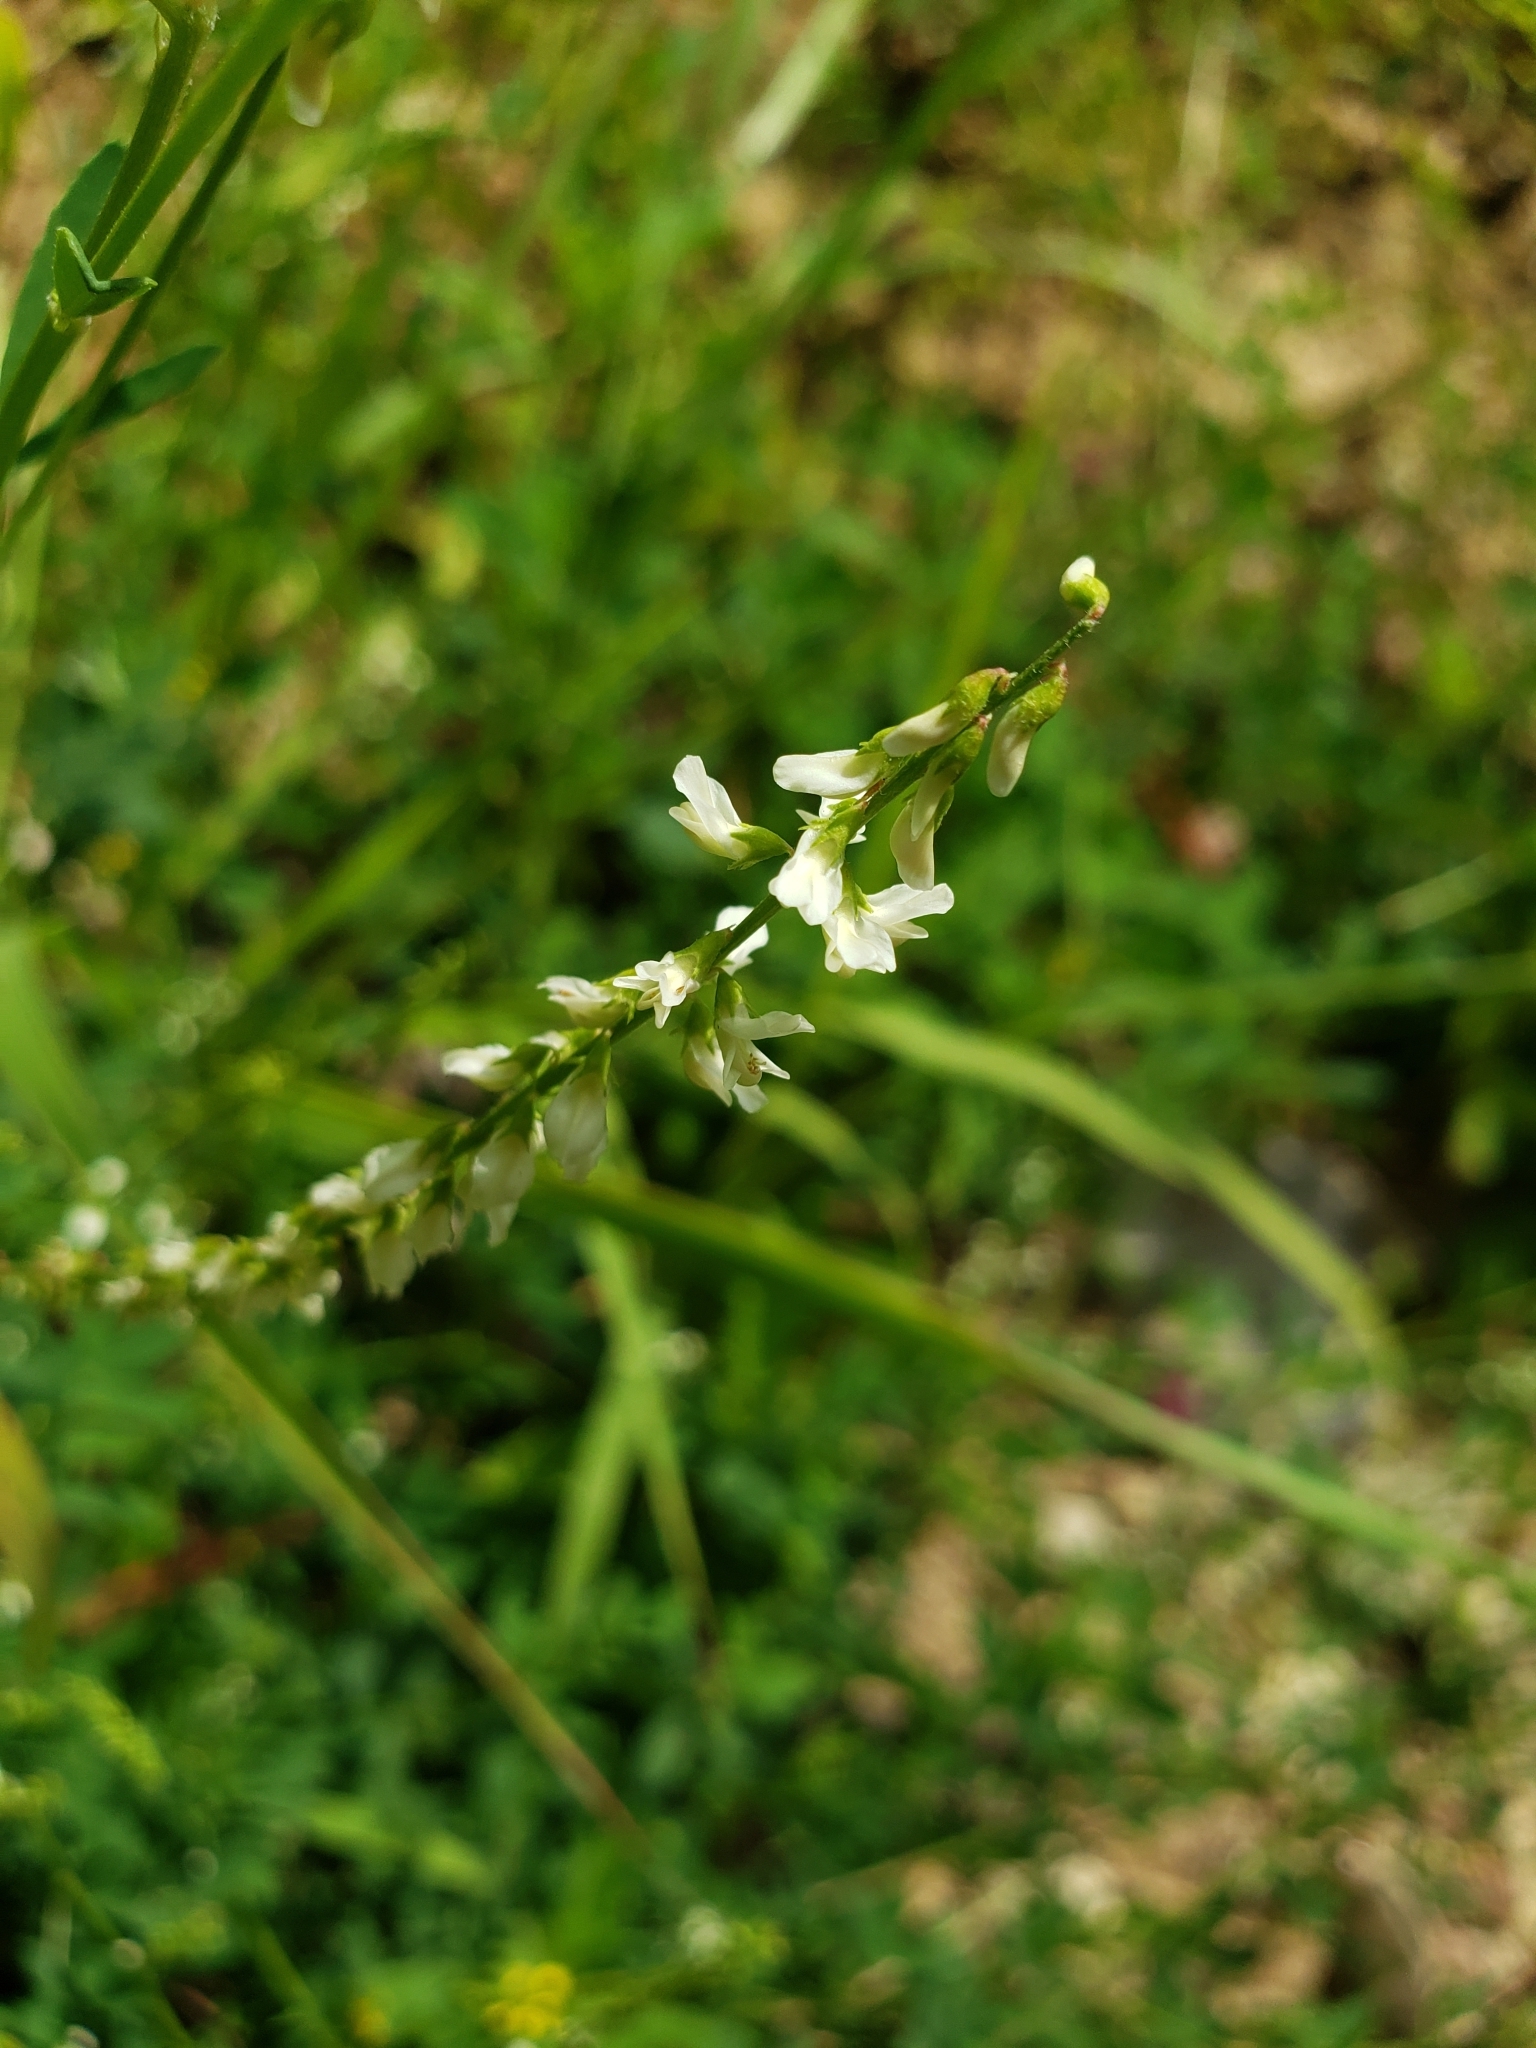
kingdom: Plantae
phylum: Tracheophyta
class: Magnoliopsida
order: Fabales
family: Fabaceae
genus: Melilotus
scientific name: Melilotus albus
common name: White melilot
